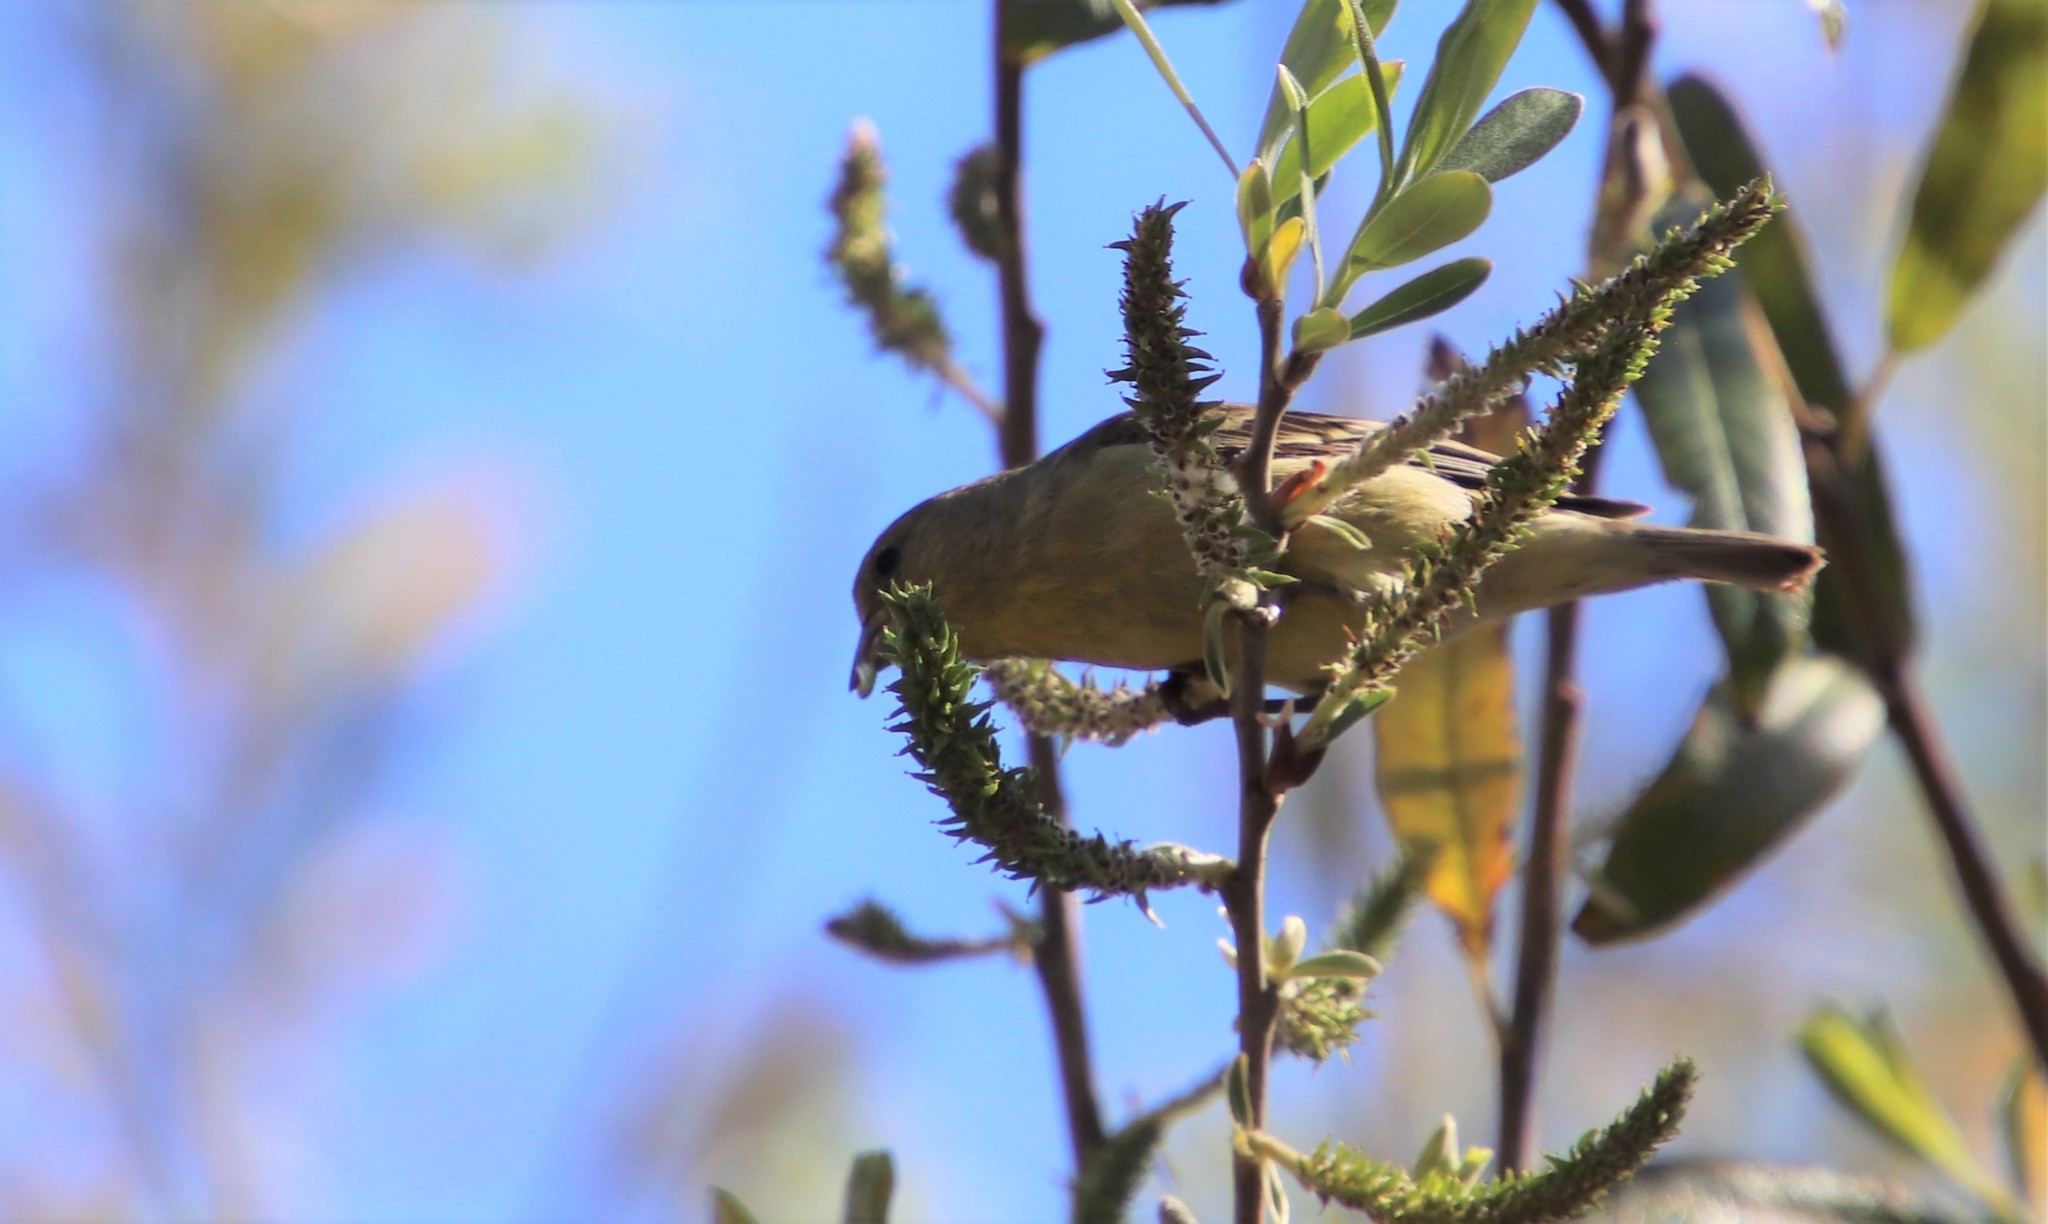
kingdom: Animalia
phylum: Chordata
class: Aves
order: Passeriformes
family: Fringillidae
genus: Spinus
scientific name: Spinus psaltria
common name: Lesser goldfinch
